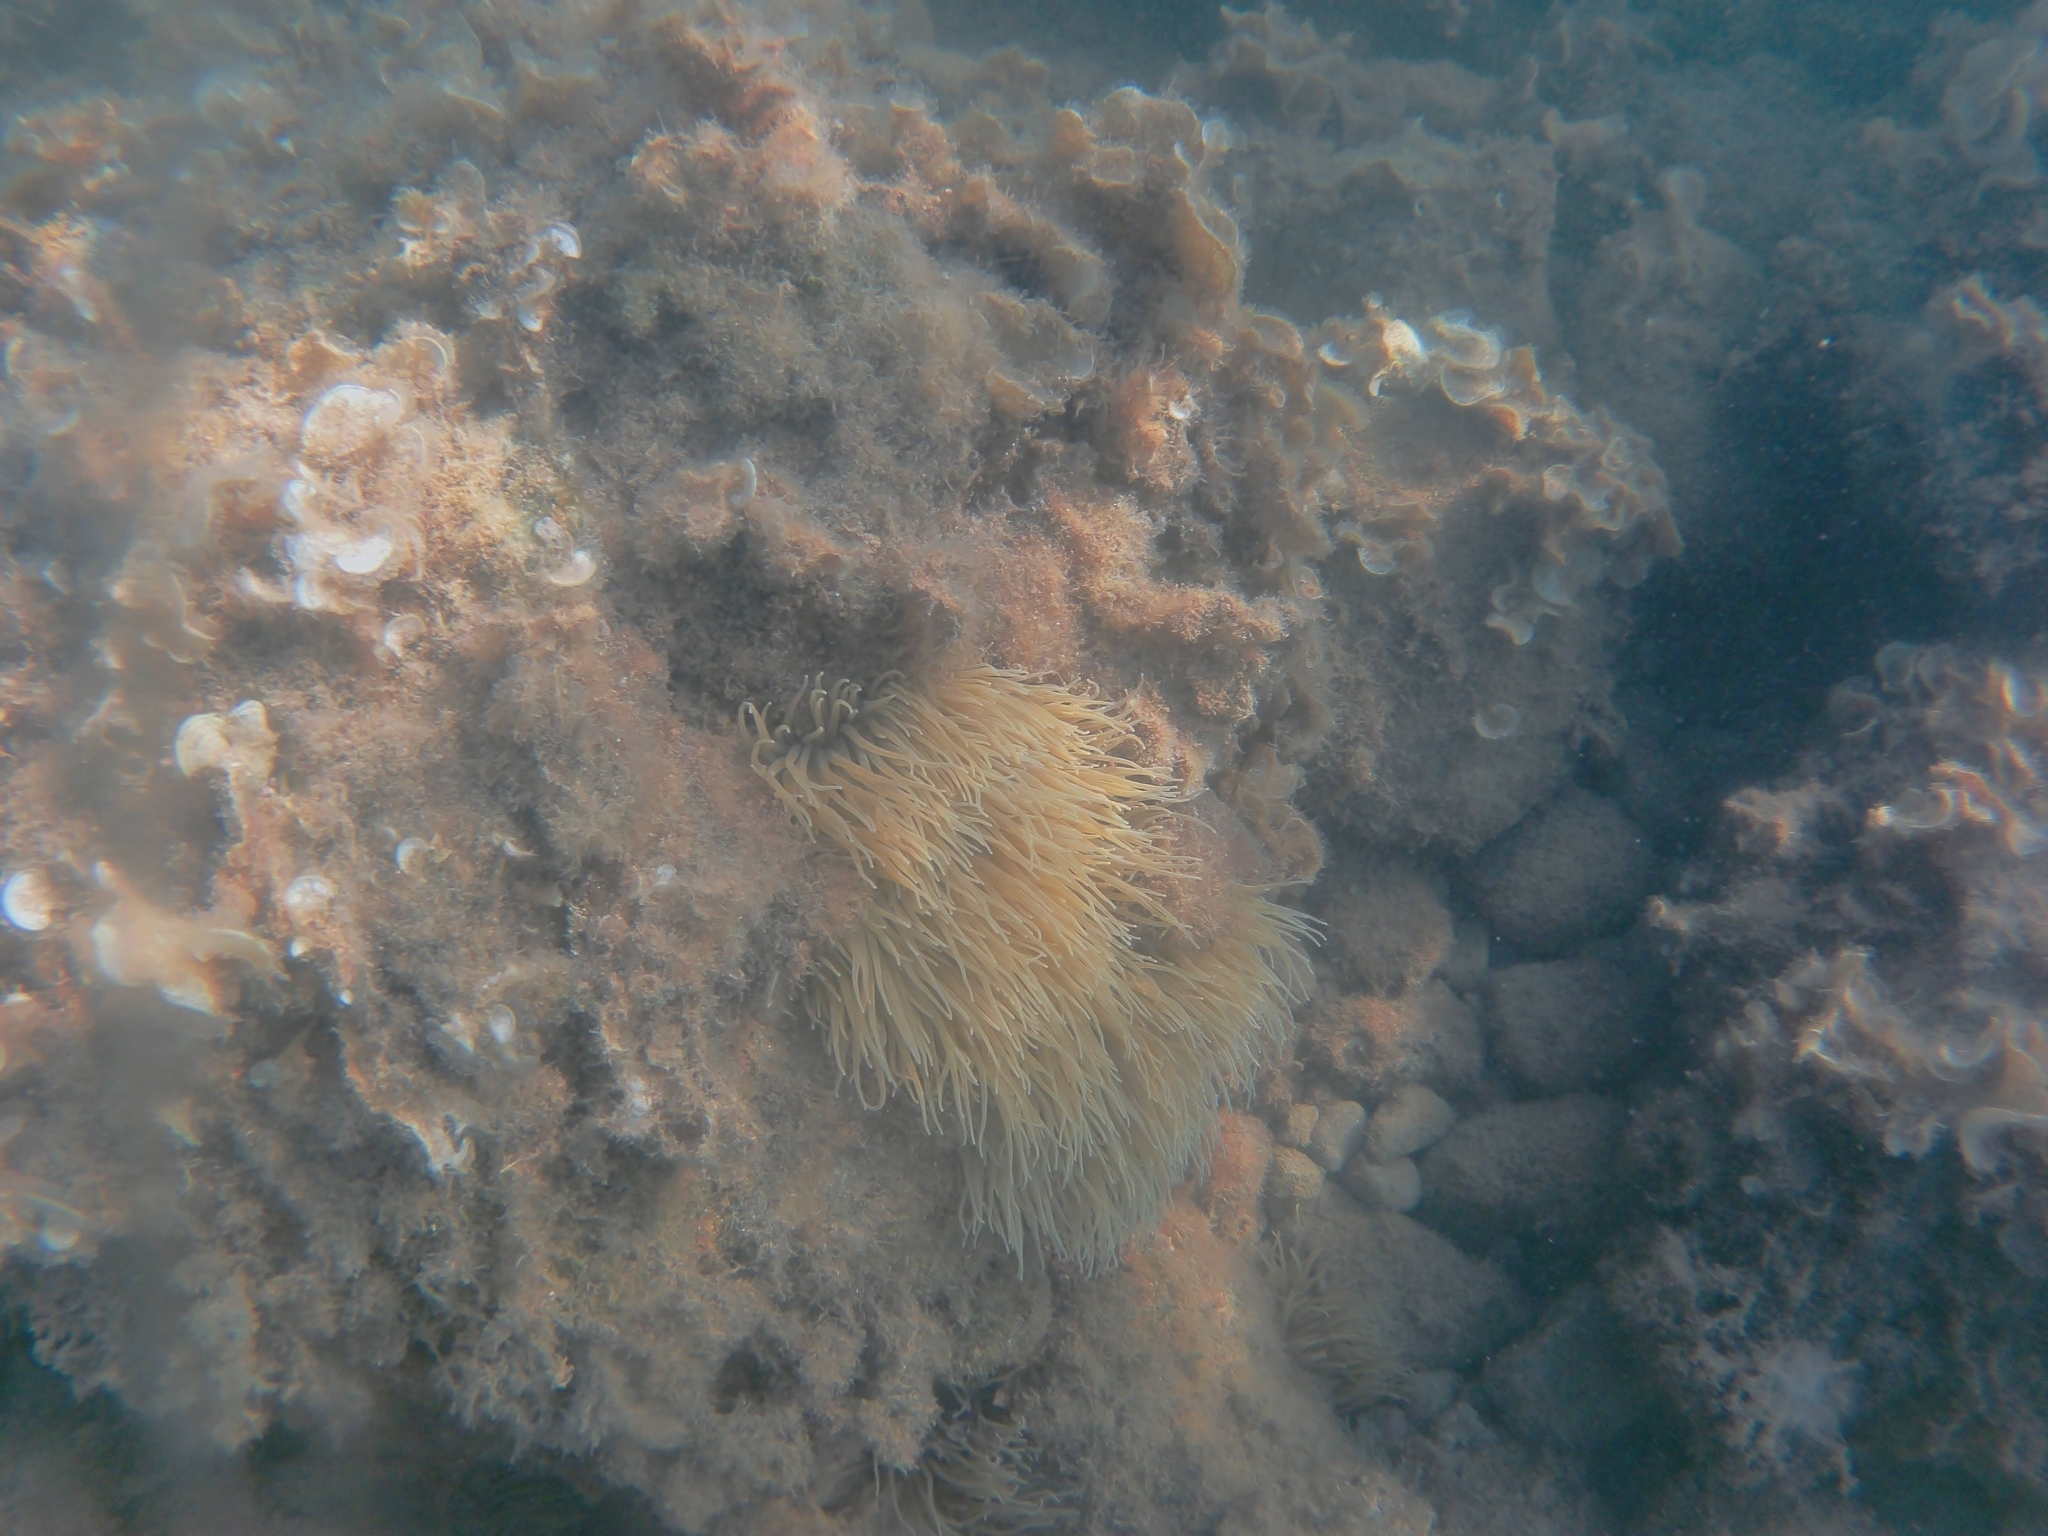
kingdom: Animalia
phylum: Cnidaria
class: Anthozoa
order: Actiniaria
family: Actiniidae
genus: Anemonia
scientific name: Anemonia viridis
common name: Snakelocks anemone
